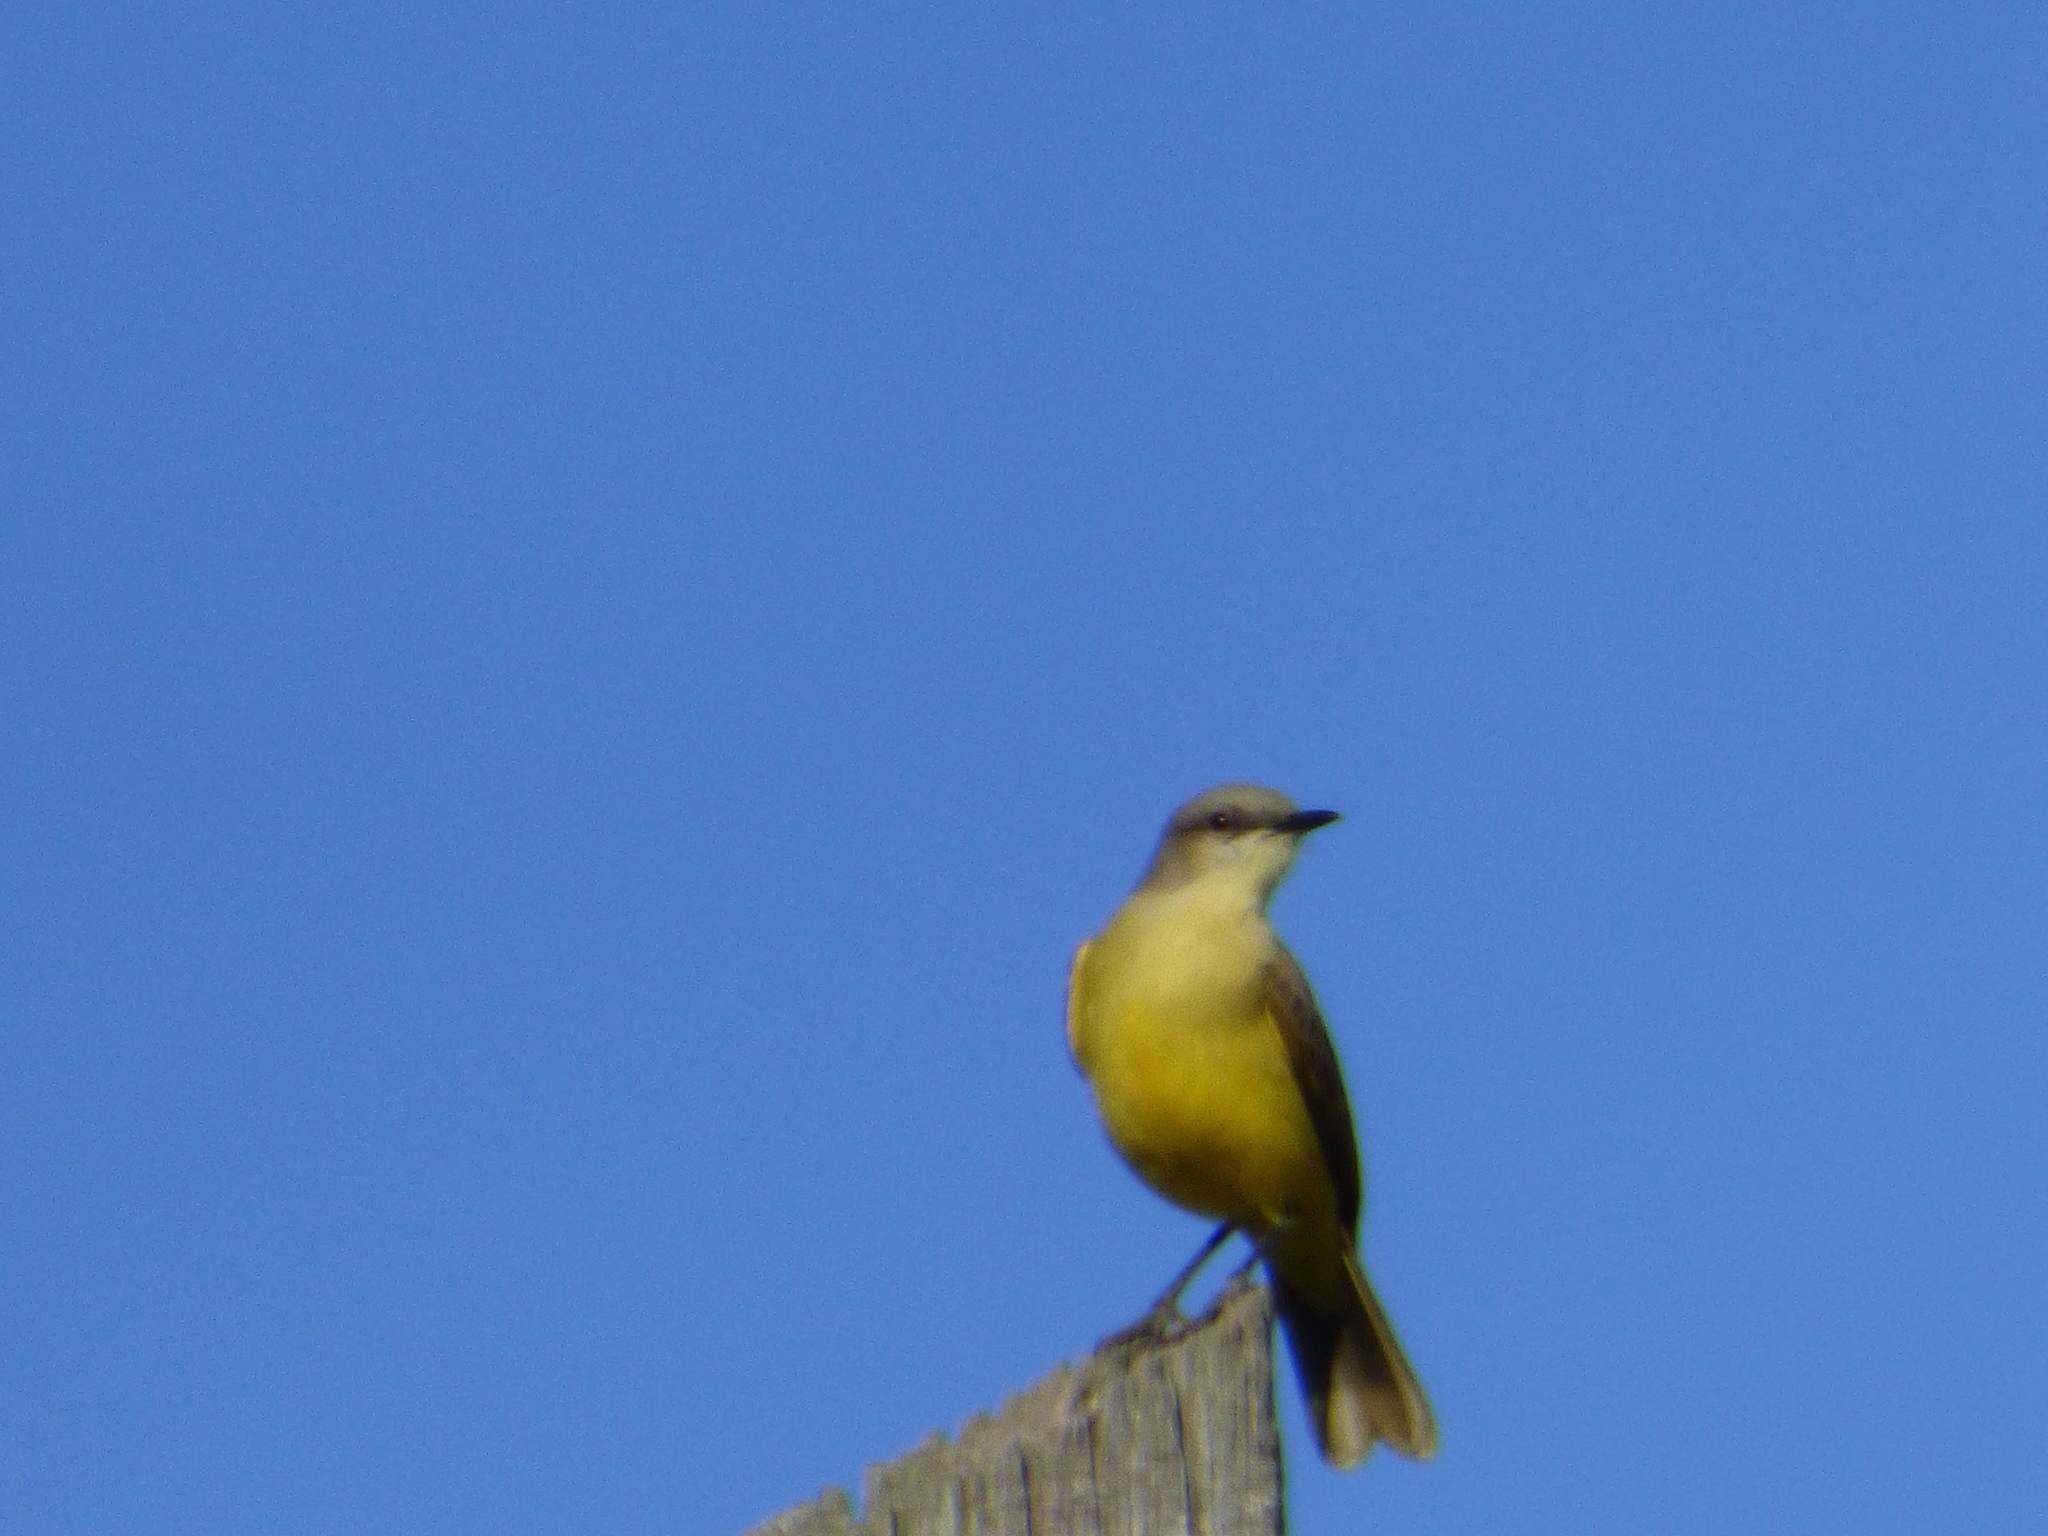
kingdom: Animalia
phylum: Chordata
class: Aves
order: Passeriformes
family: Tyrannidae
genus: Machetornis
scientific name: Machetornis rixosa
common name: Cattle tyrant
